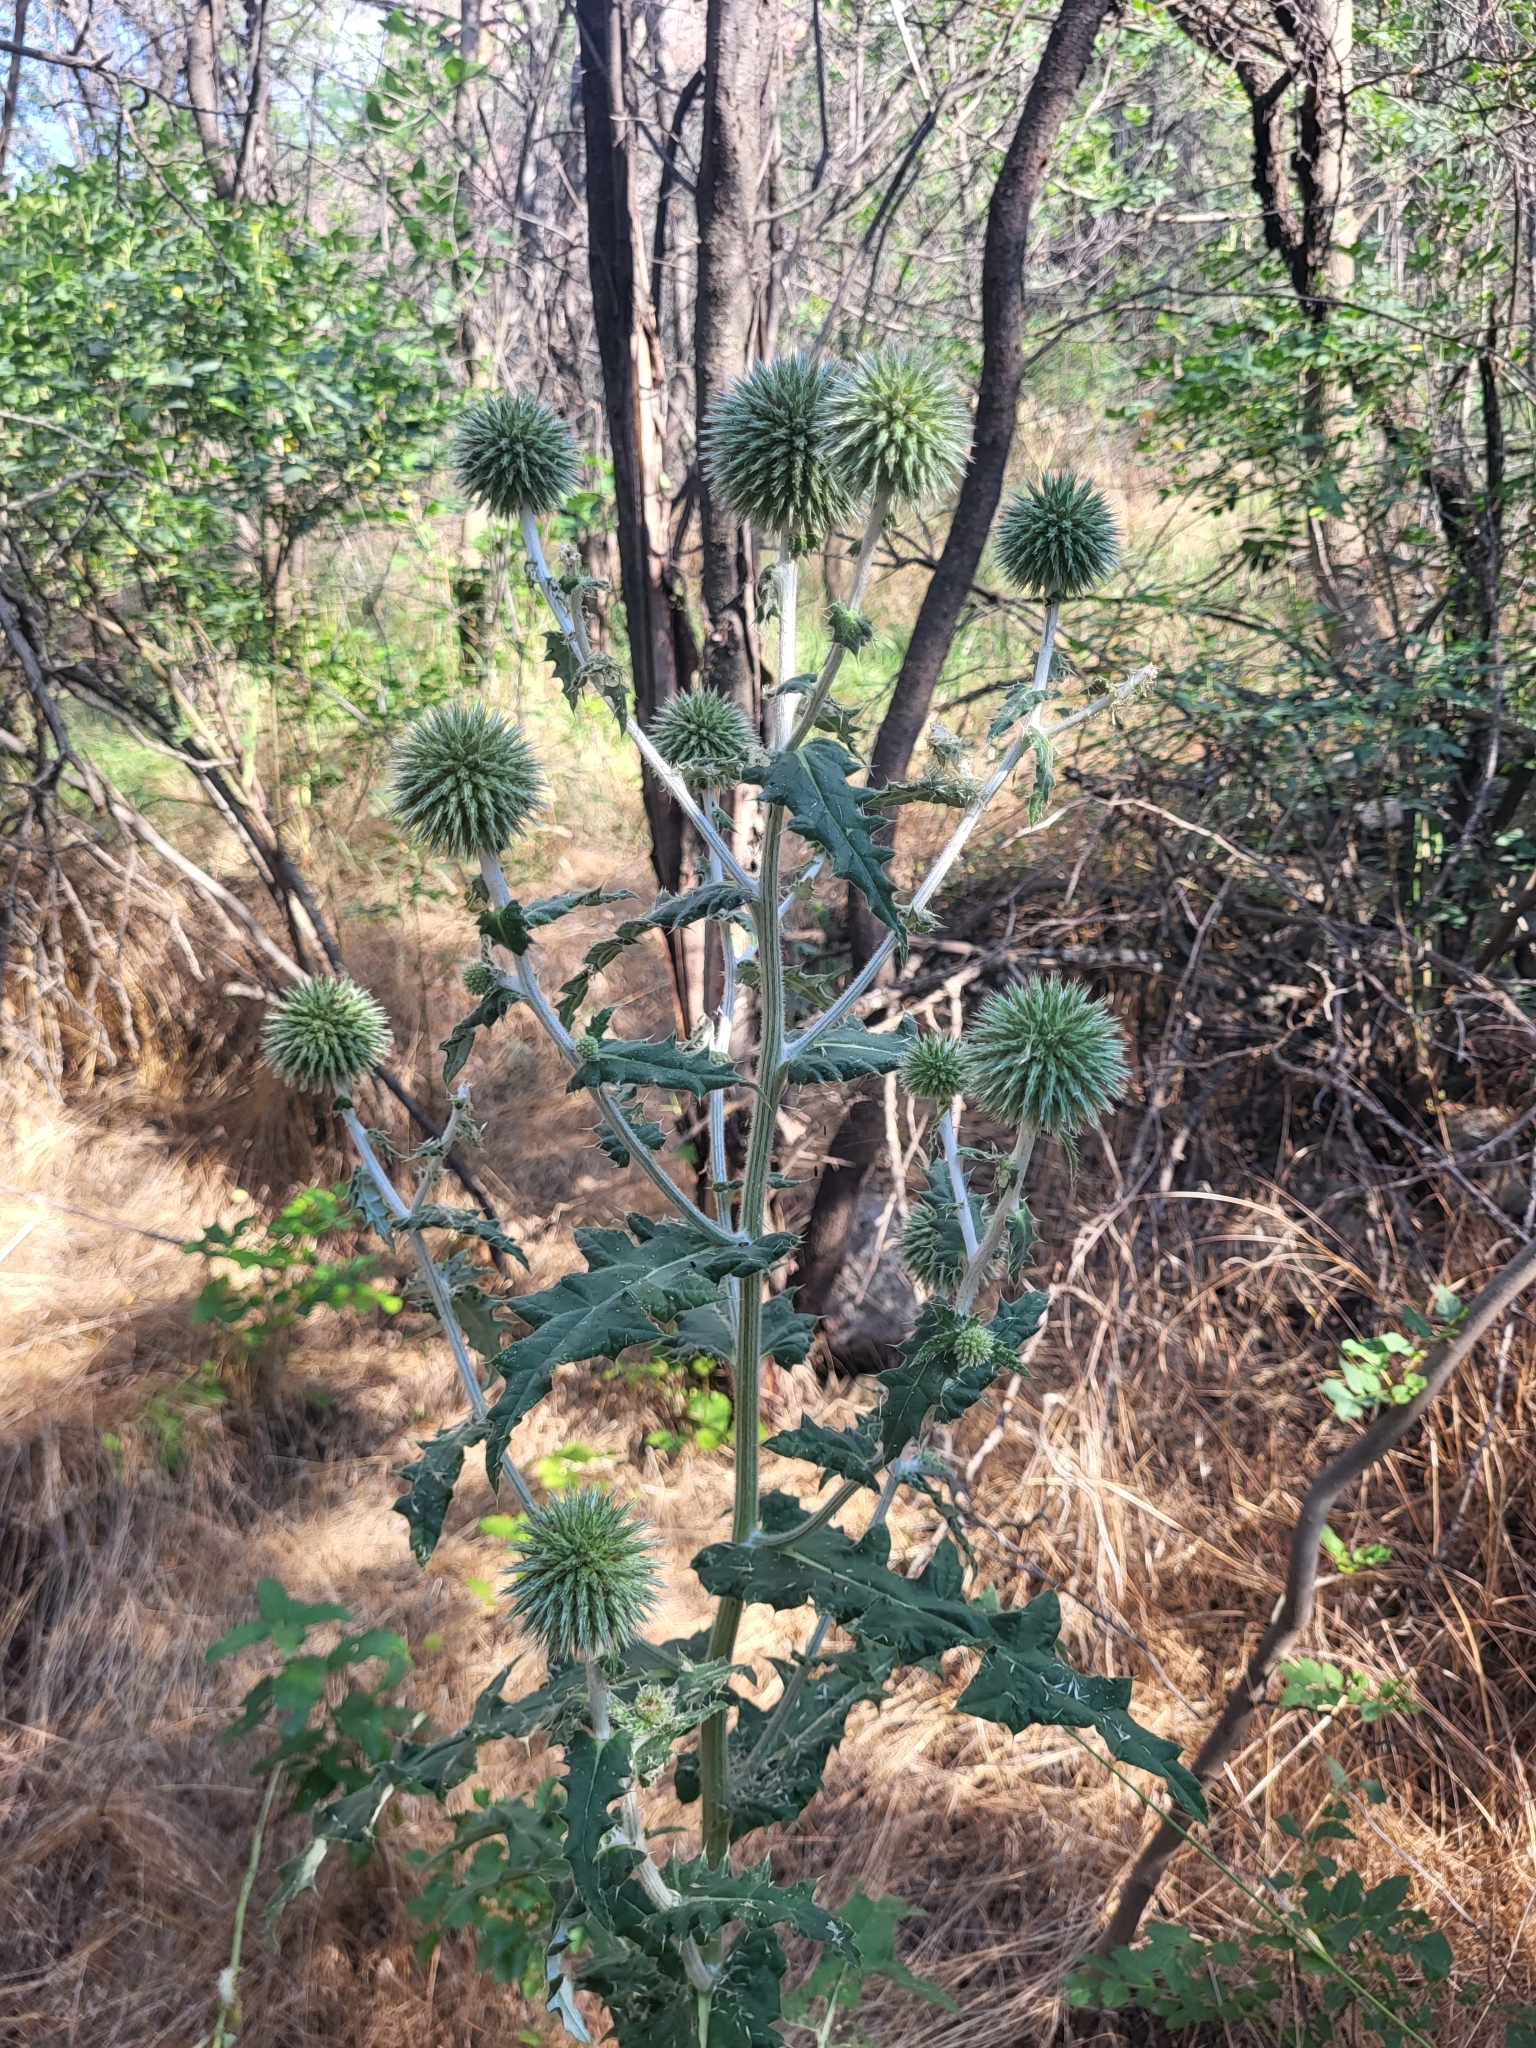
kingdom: Plantae
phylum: Tracheophyta
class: Magnoliopsida
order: Asterales
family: Asteraceae
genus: Echinops
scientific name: Echinops sphaerocephalus
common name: Glandular globe-thistle
